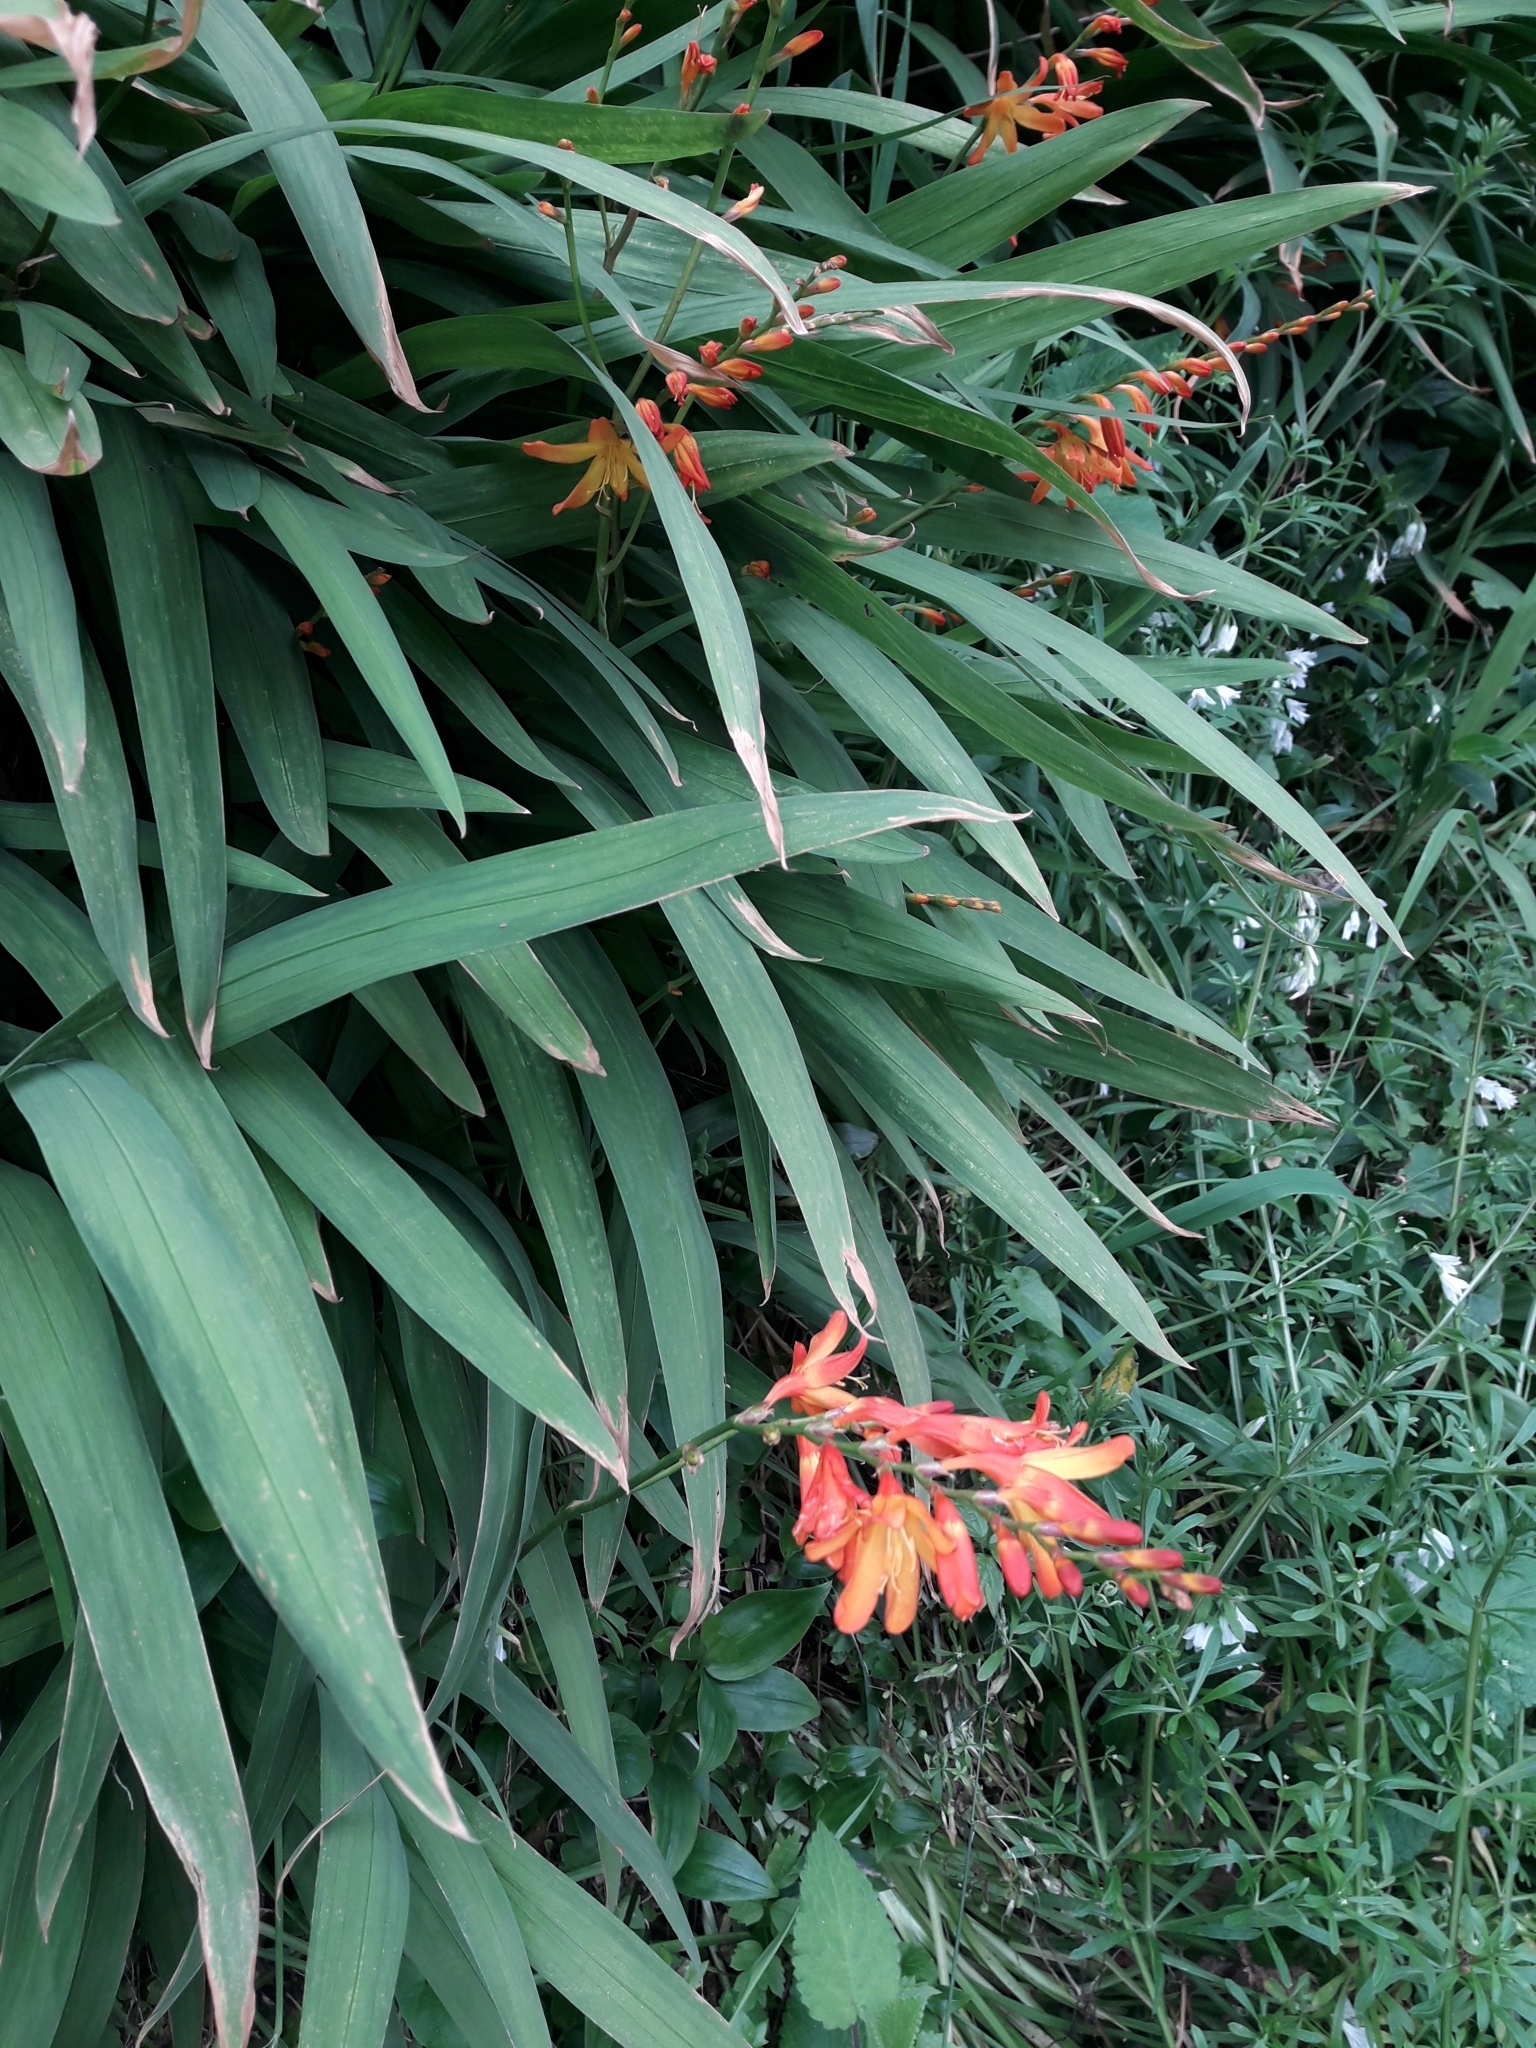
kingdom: Plantae
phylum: Tracheophyta
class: Liliopsida
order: Asparagales
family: Iridaceae
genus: Crocosmia
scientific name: Crocosmia crocosmiiflora
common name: Montbretia
